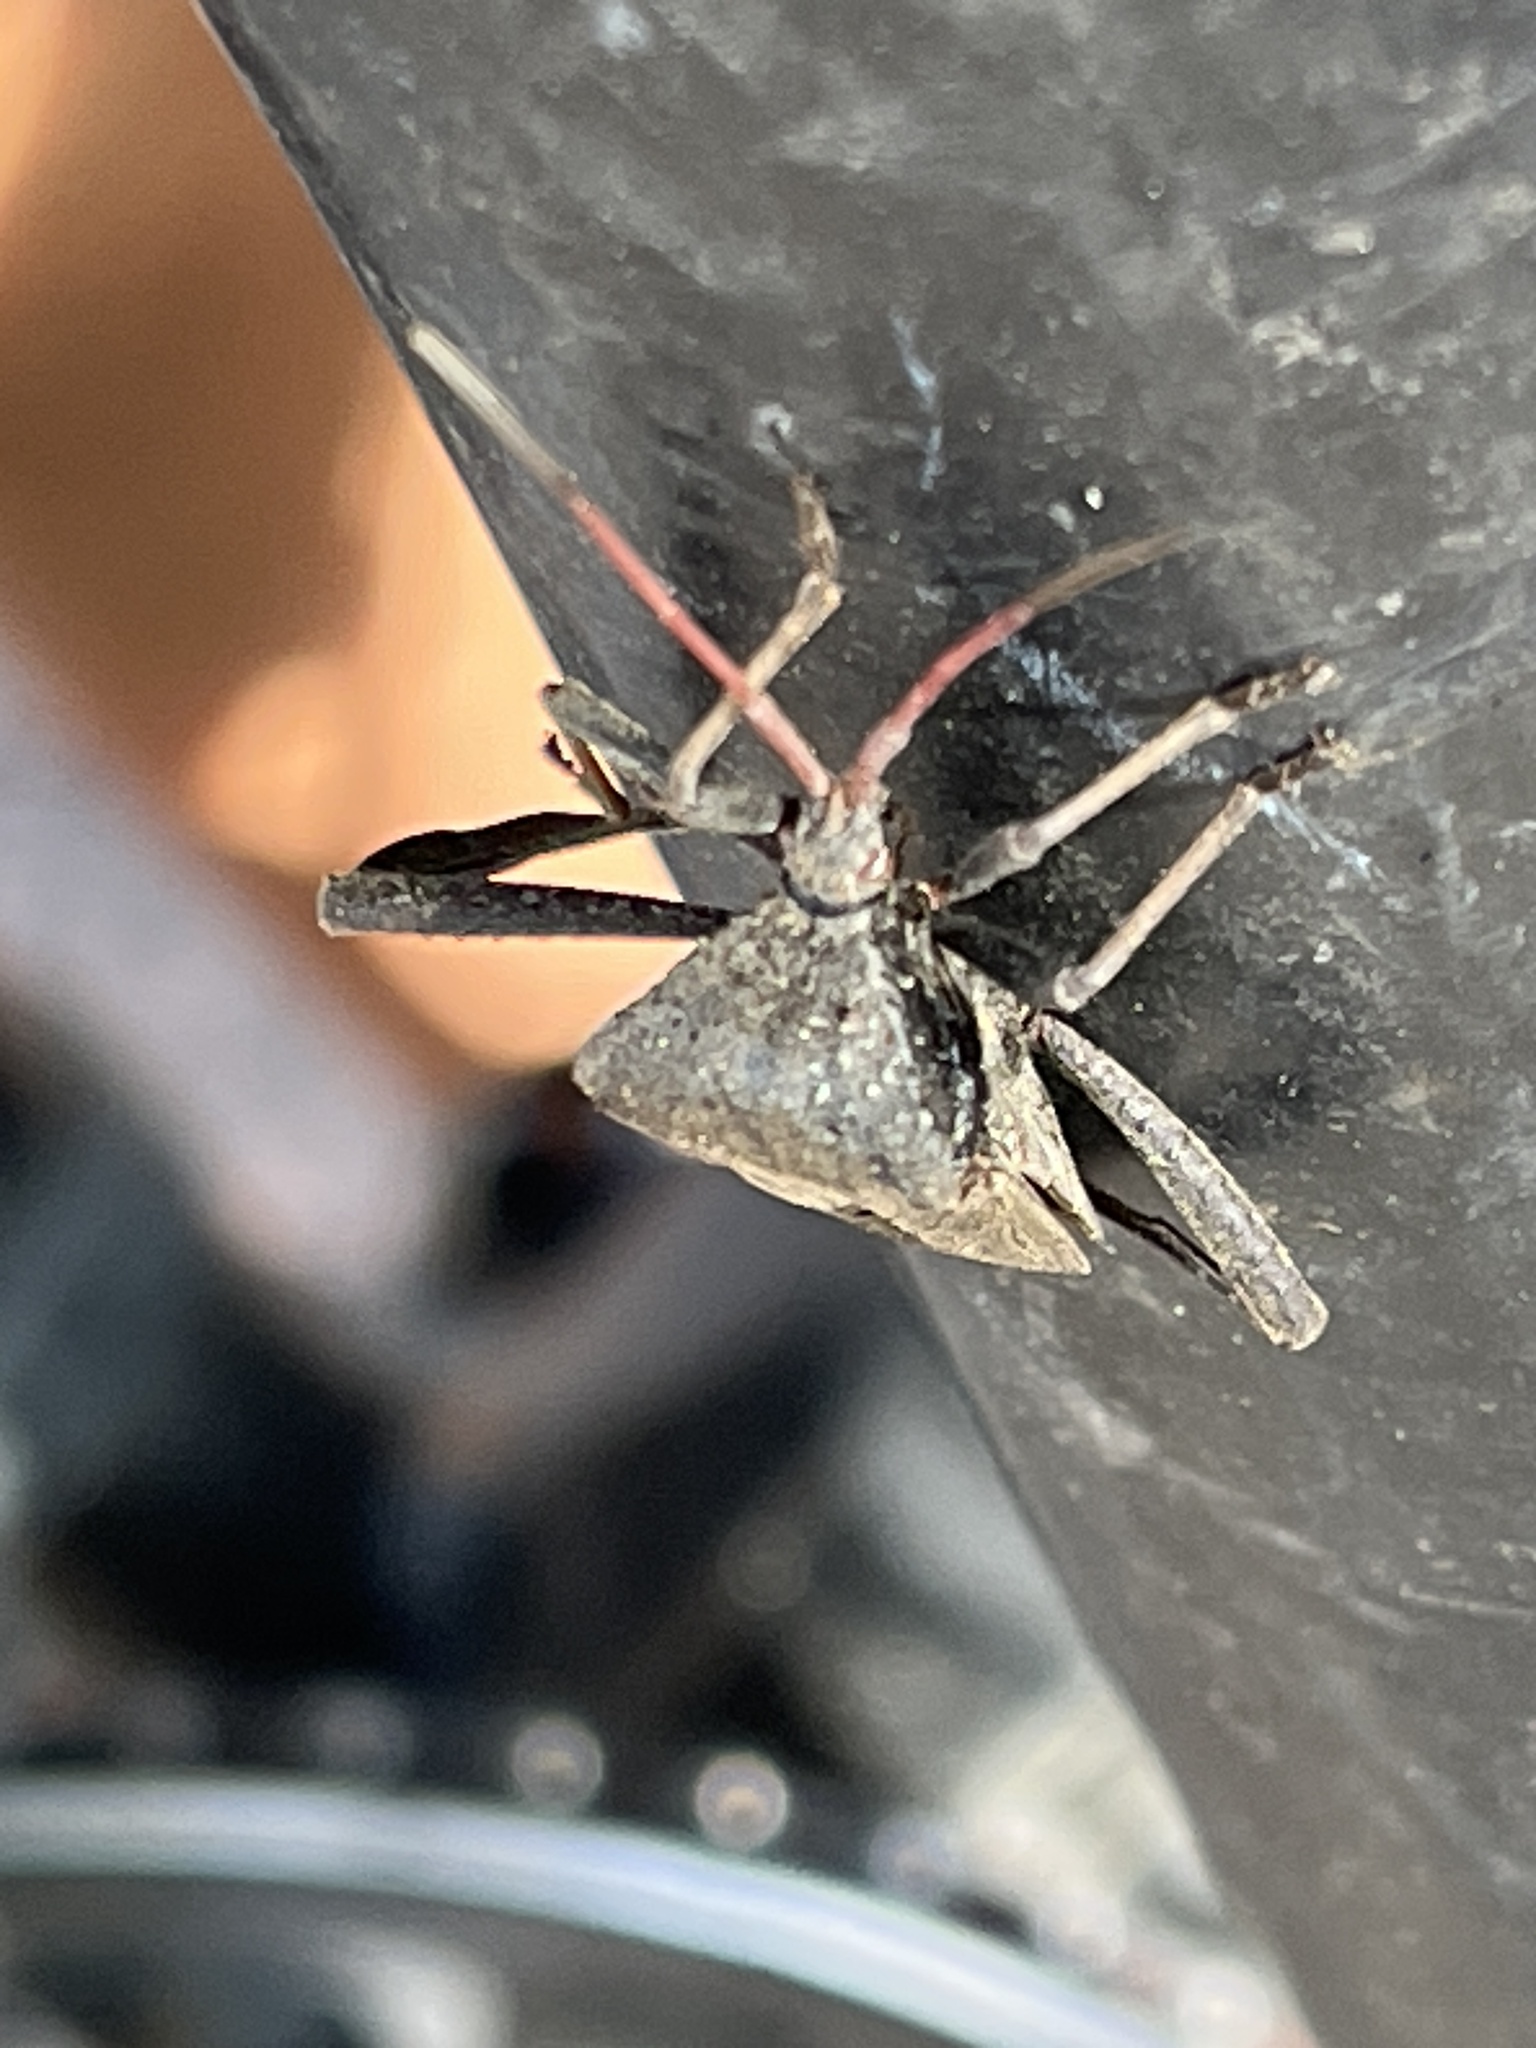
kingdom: Animalia
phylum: Arthropoda
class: Insecta
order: Hemiptera
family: Coreidae
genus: Acanthocephala
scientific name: Acanthocephala femorata
